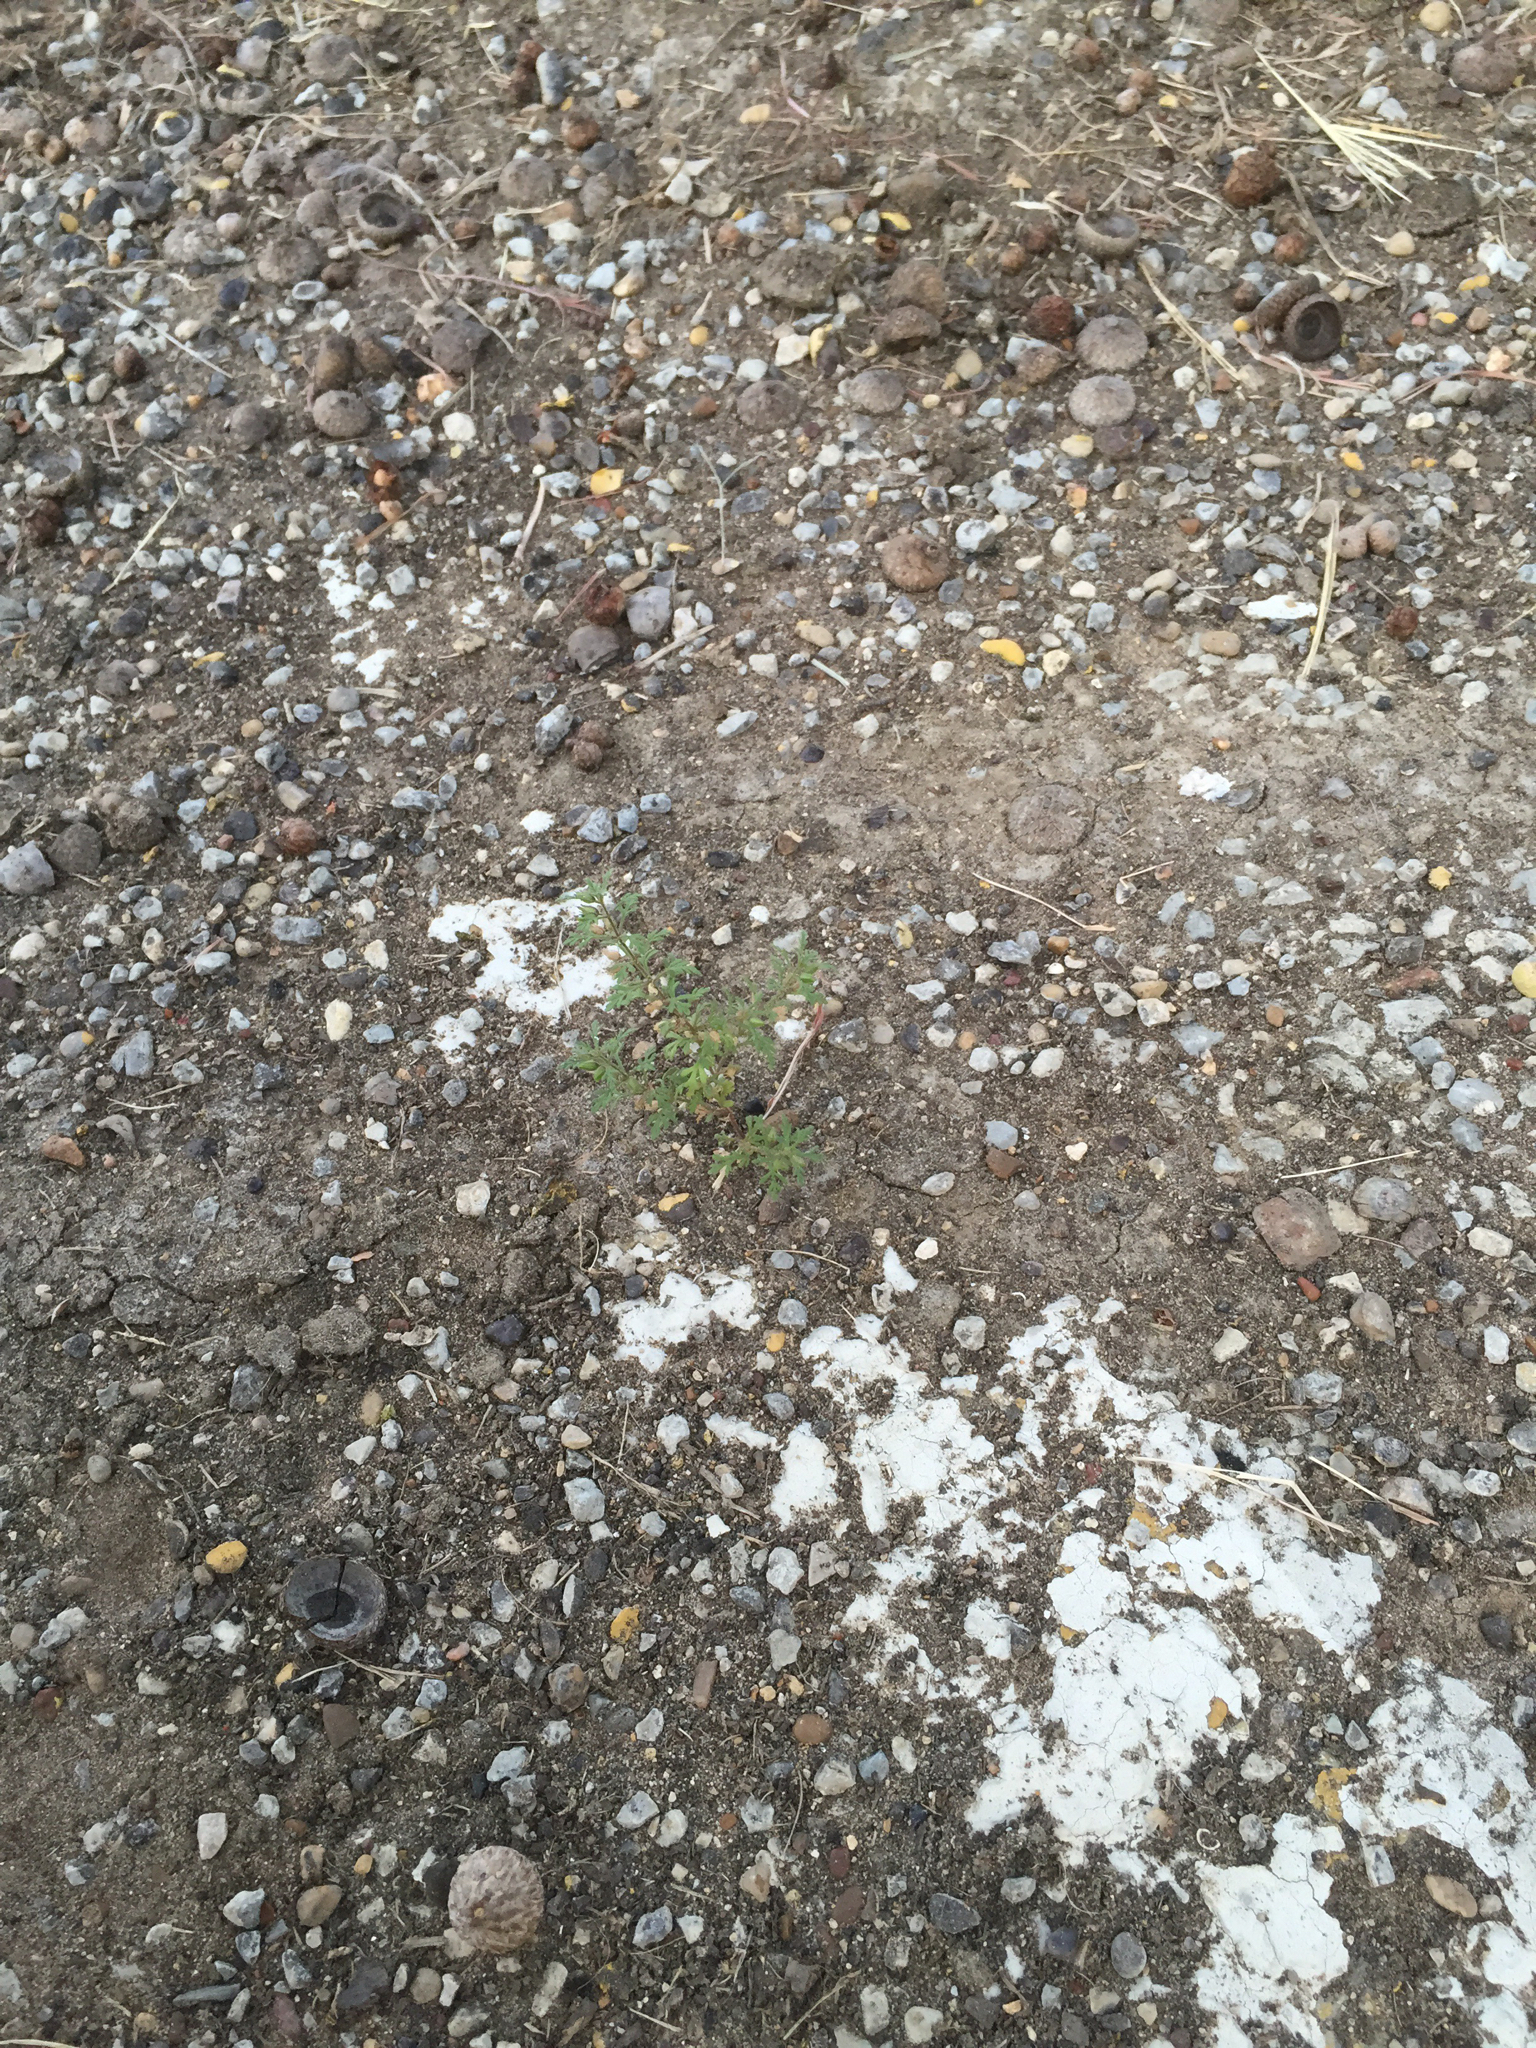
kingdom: Plantae
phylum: Tracheophyta
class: Magnoliopsida
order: Lamiales
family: Plantaginaceae
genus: Leucospora
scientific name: Leucospora multifida
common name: Narrow-leaf paleseed
